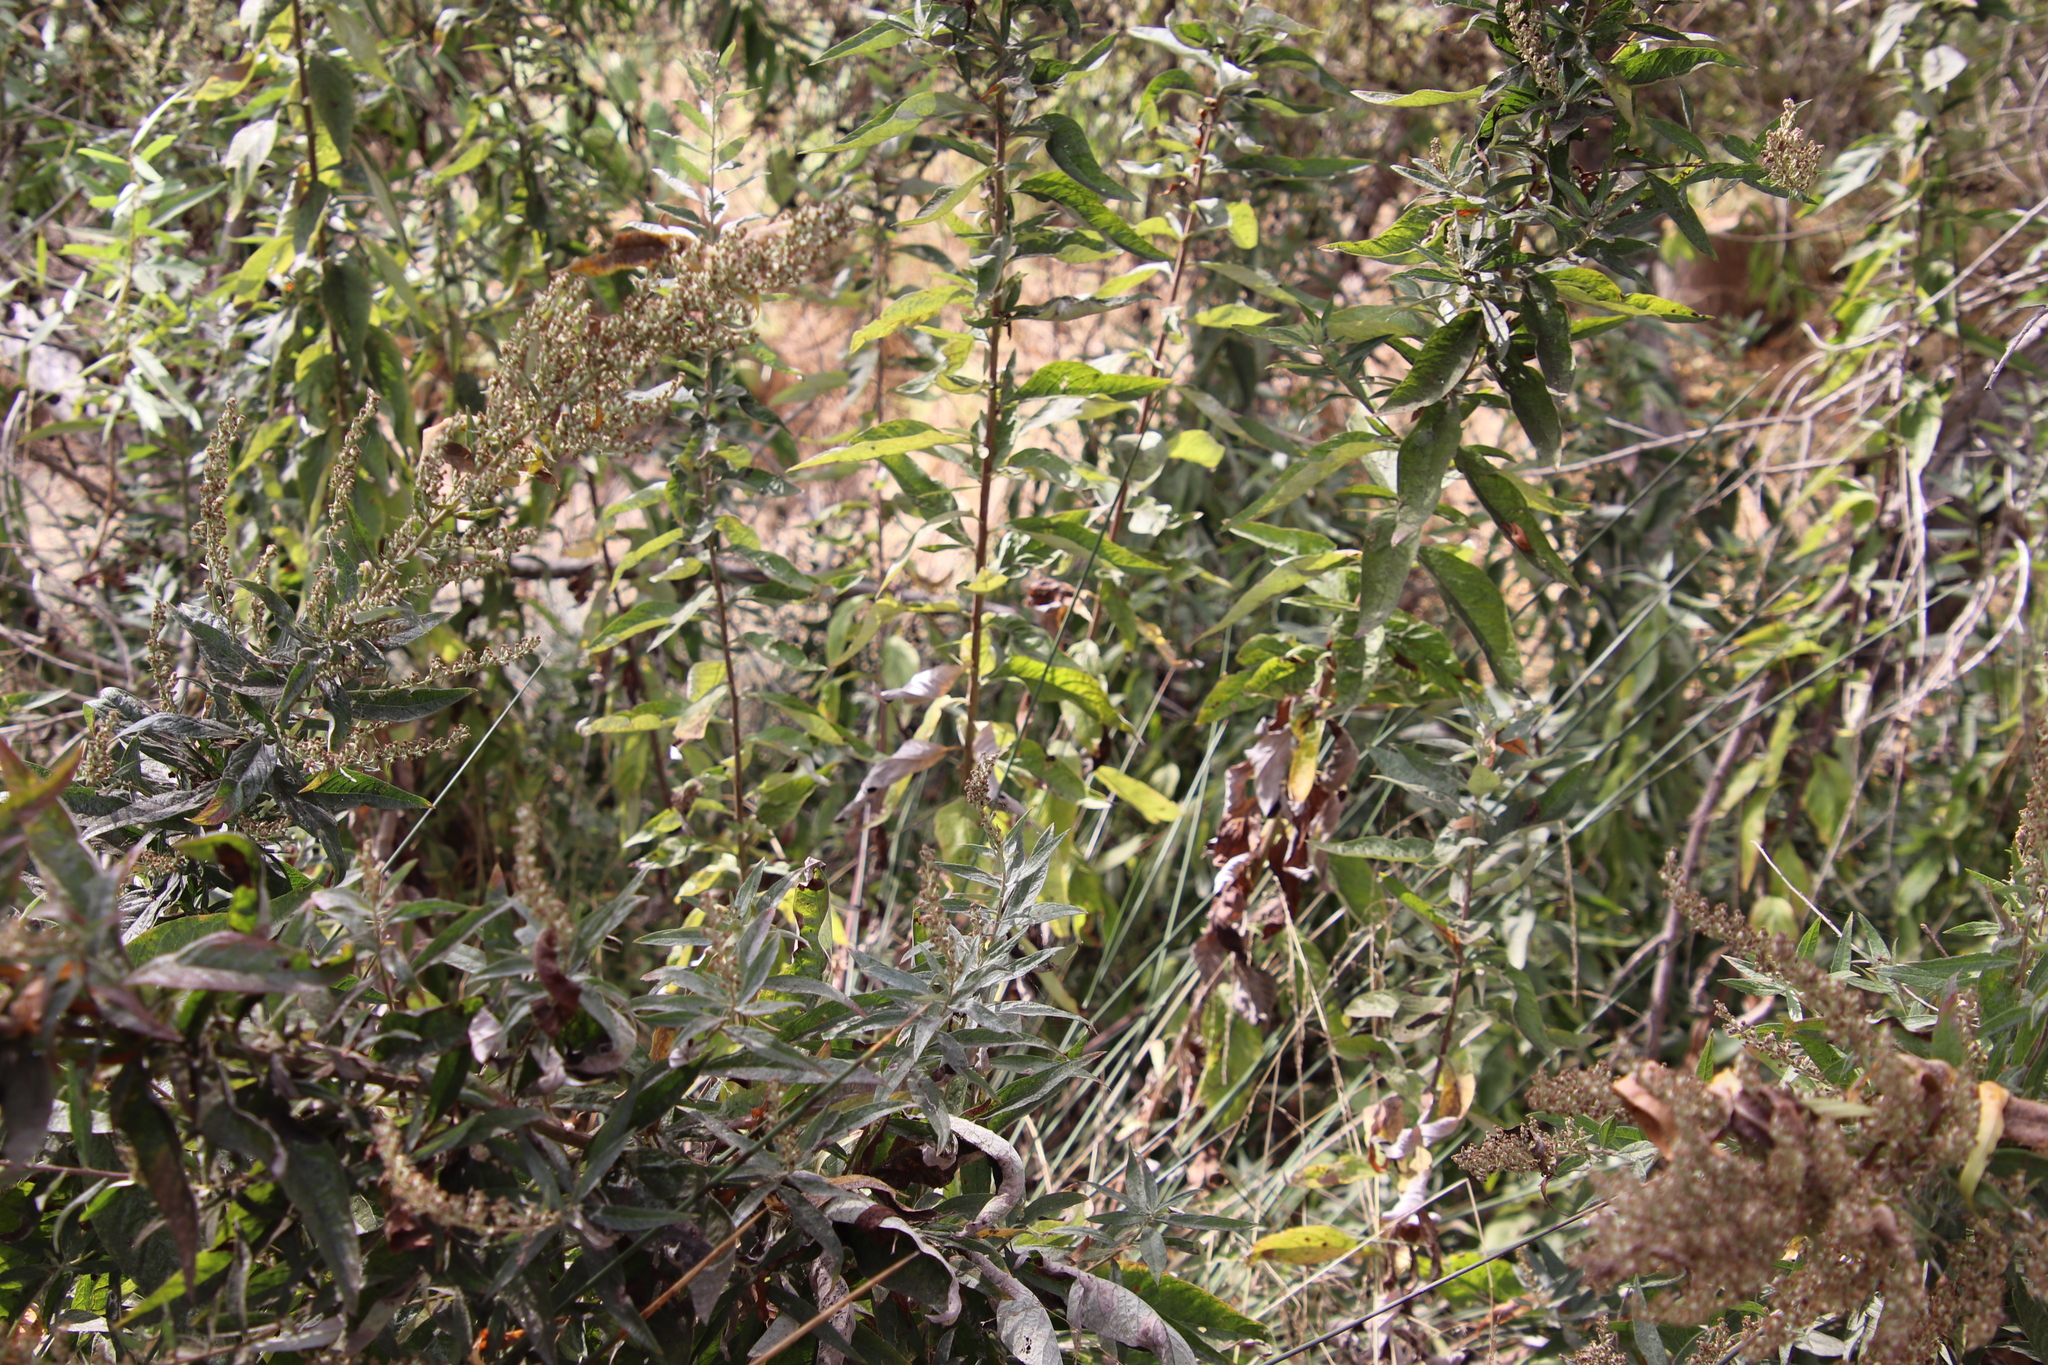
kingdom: Plantae
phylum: Tracheophyta
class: Magnoliopsida
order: Asterales
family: Asteraceae
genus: Artemisia
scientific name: Artemisia douglasiana
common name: Northwest mugwort
